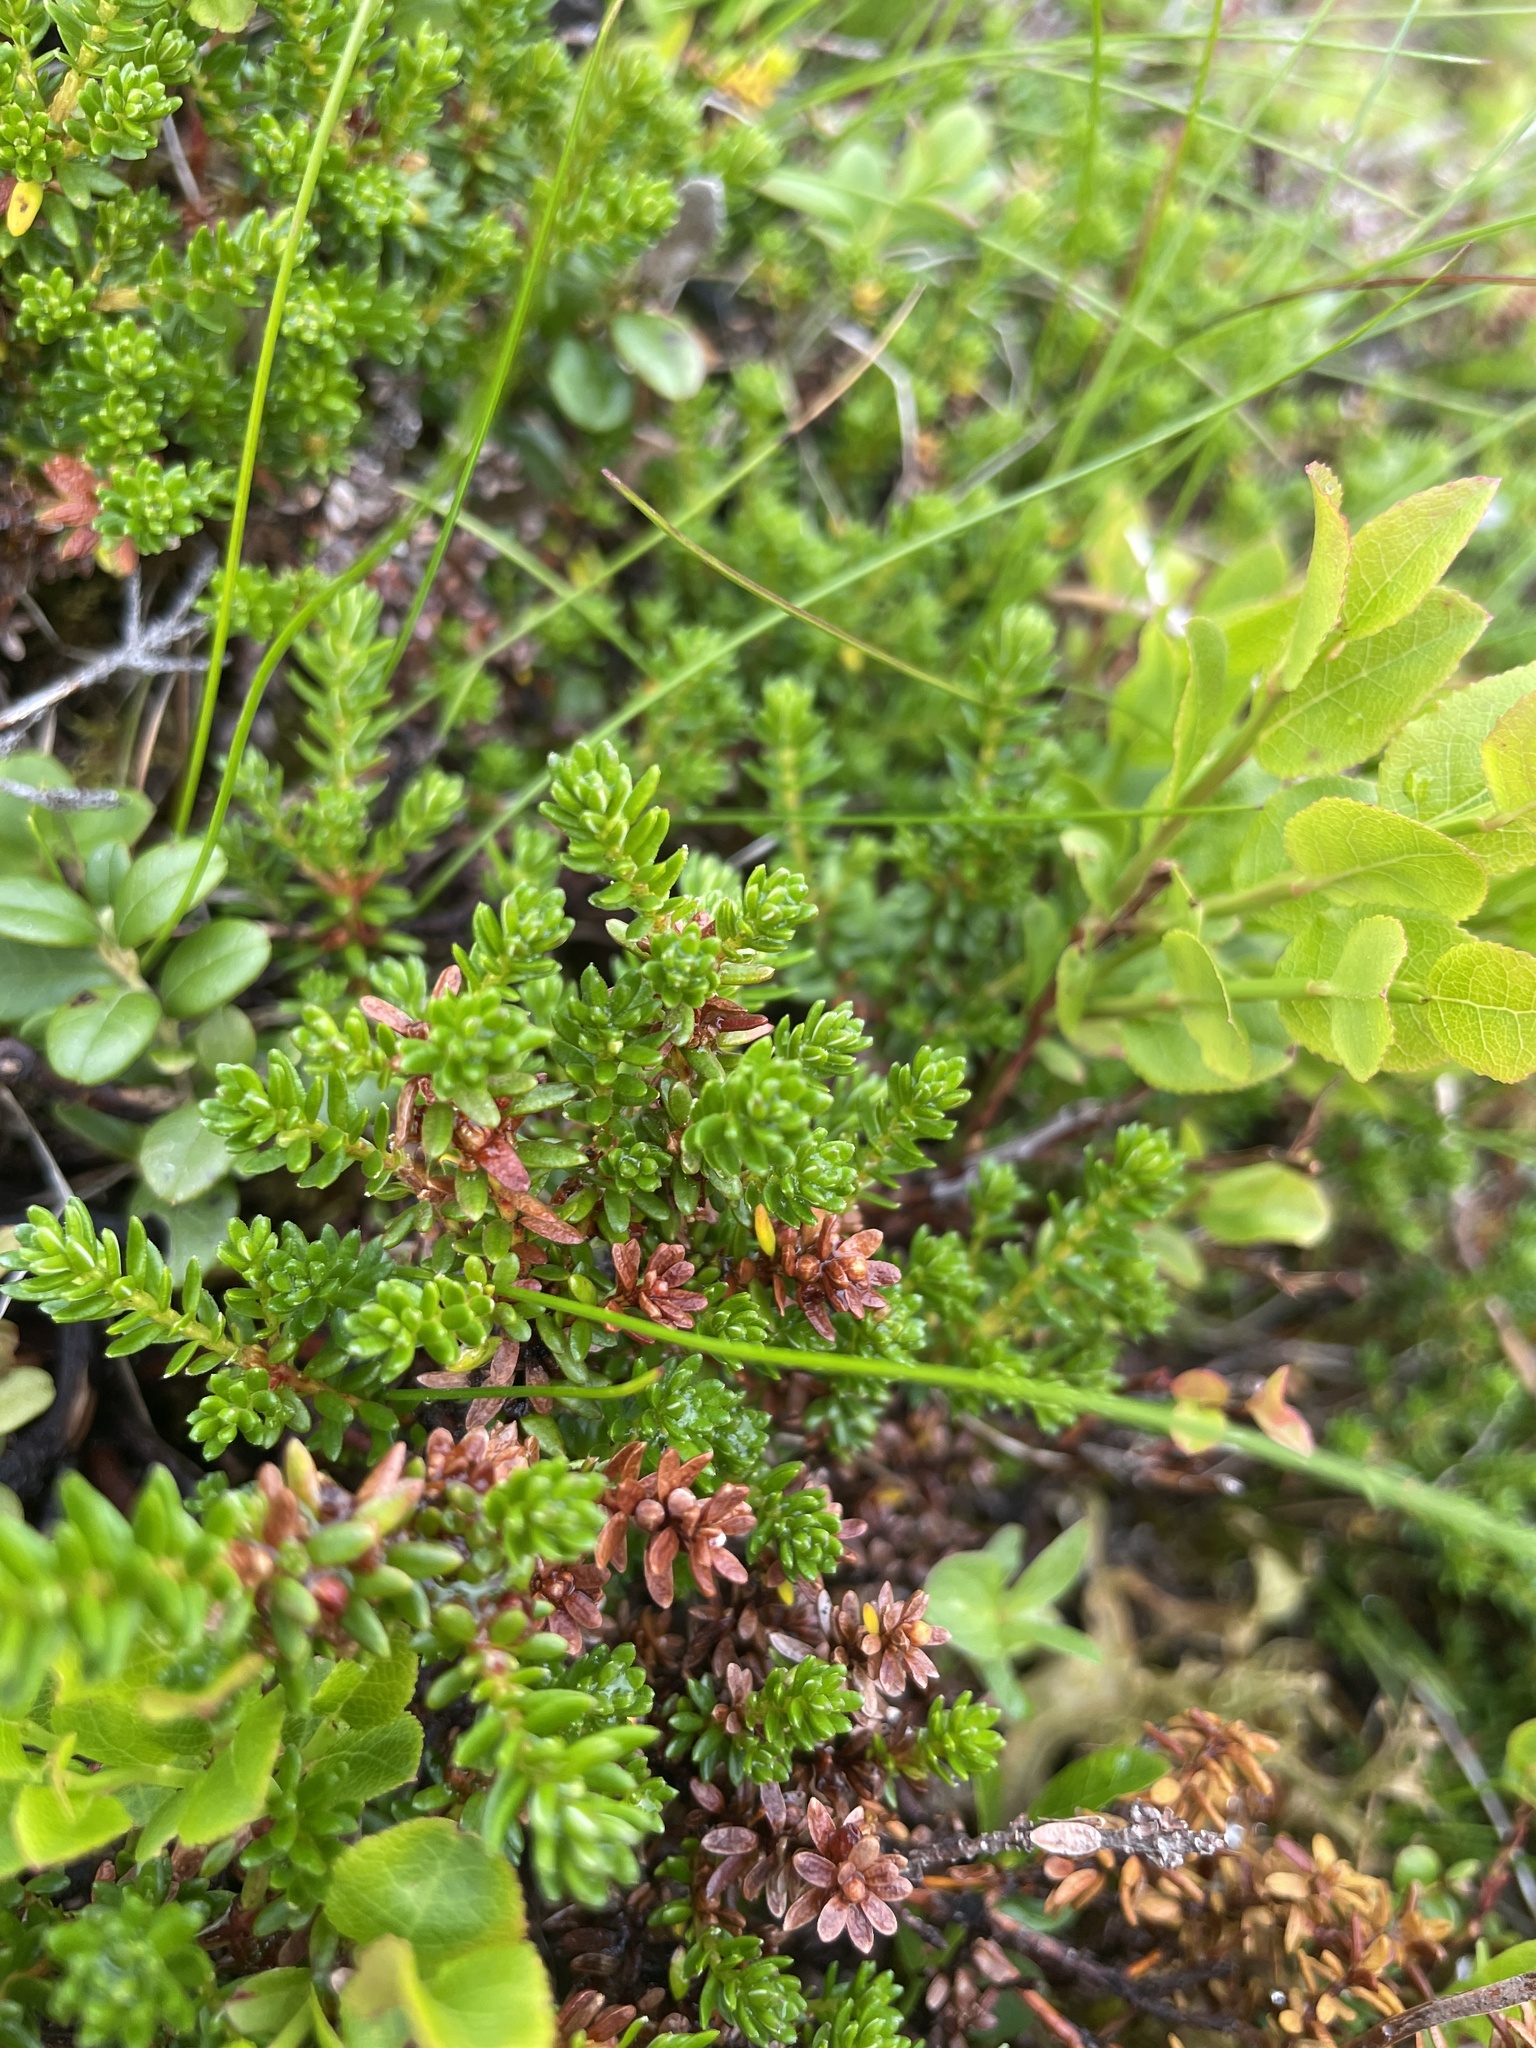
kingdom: Plantae
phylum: Tracheophyta
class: Magnoliopsida
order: Ericales
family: Ericaceae
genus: Empetrum
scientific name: Empetrum nigrum
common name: Black crowberry
